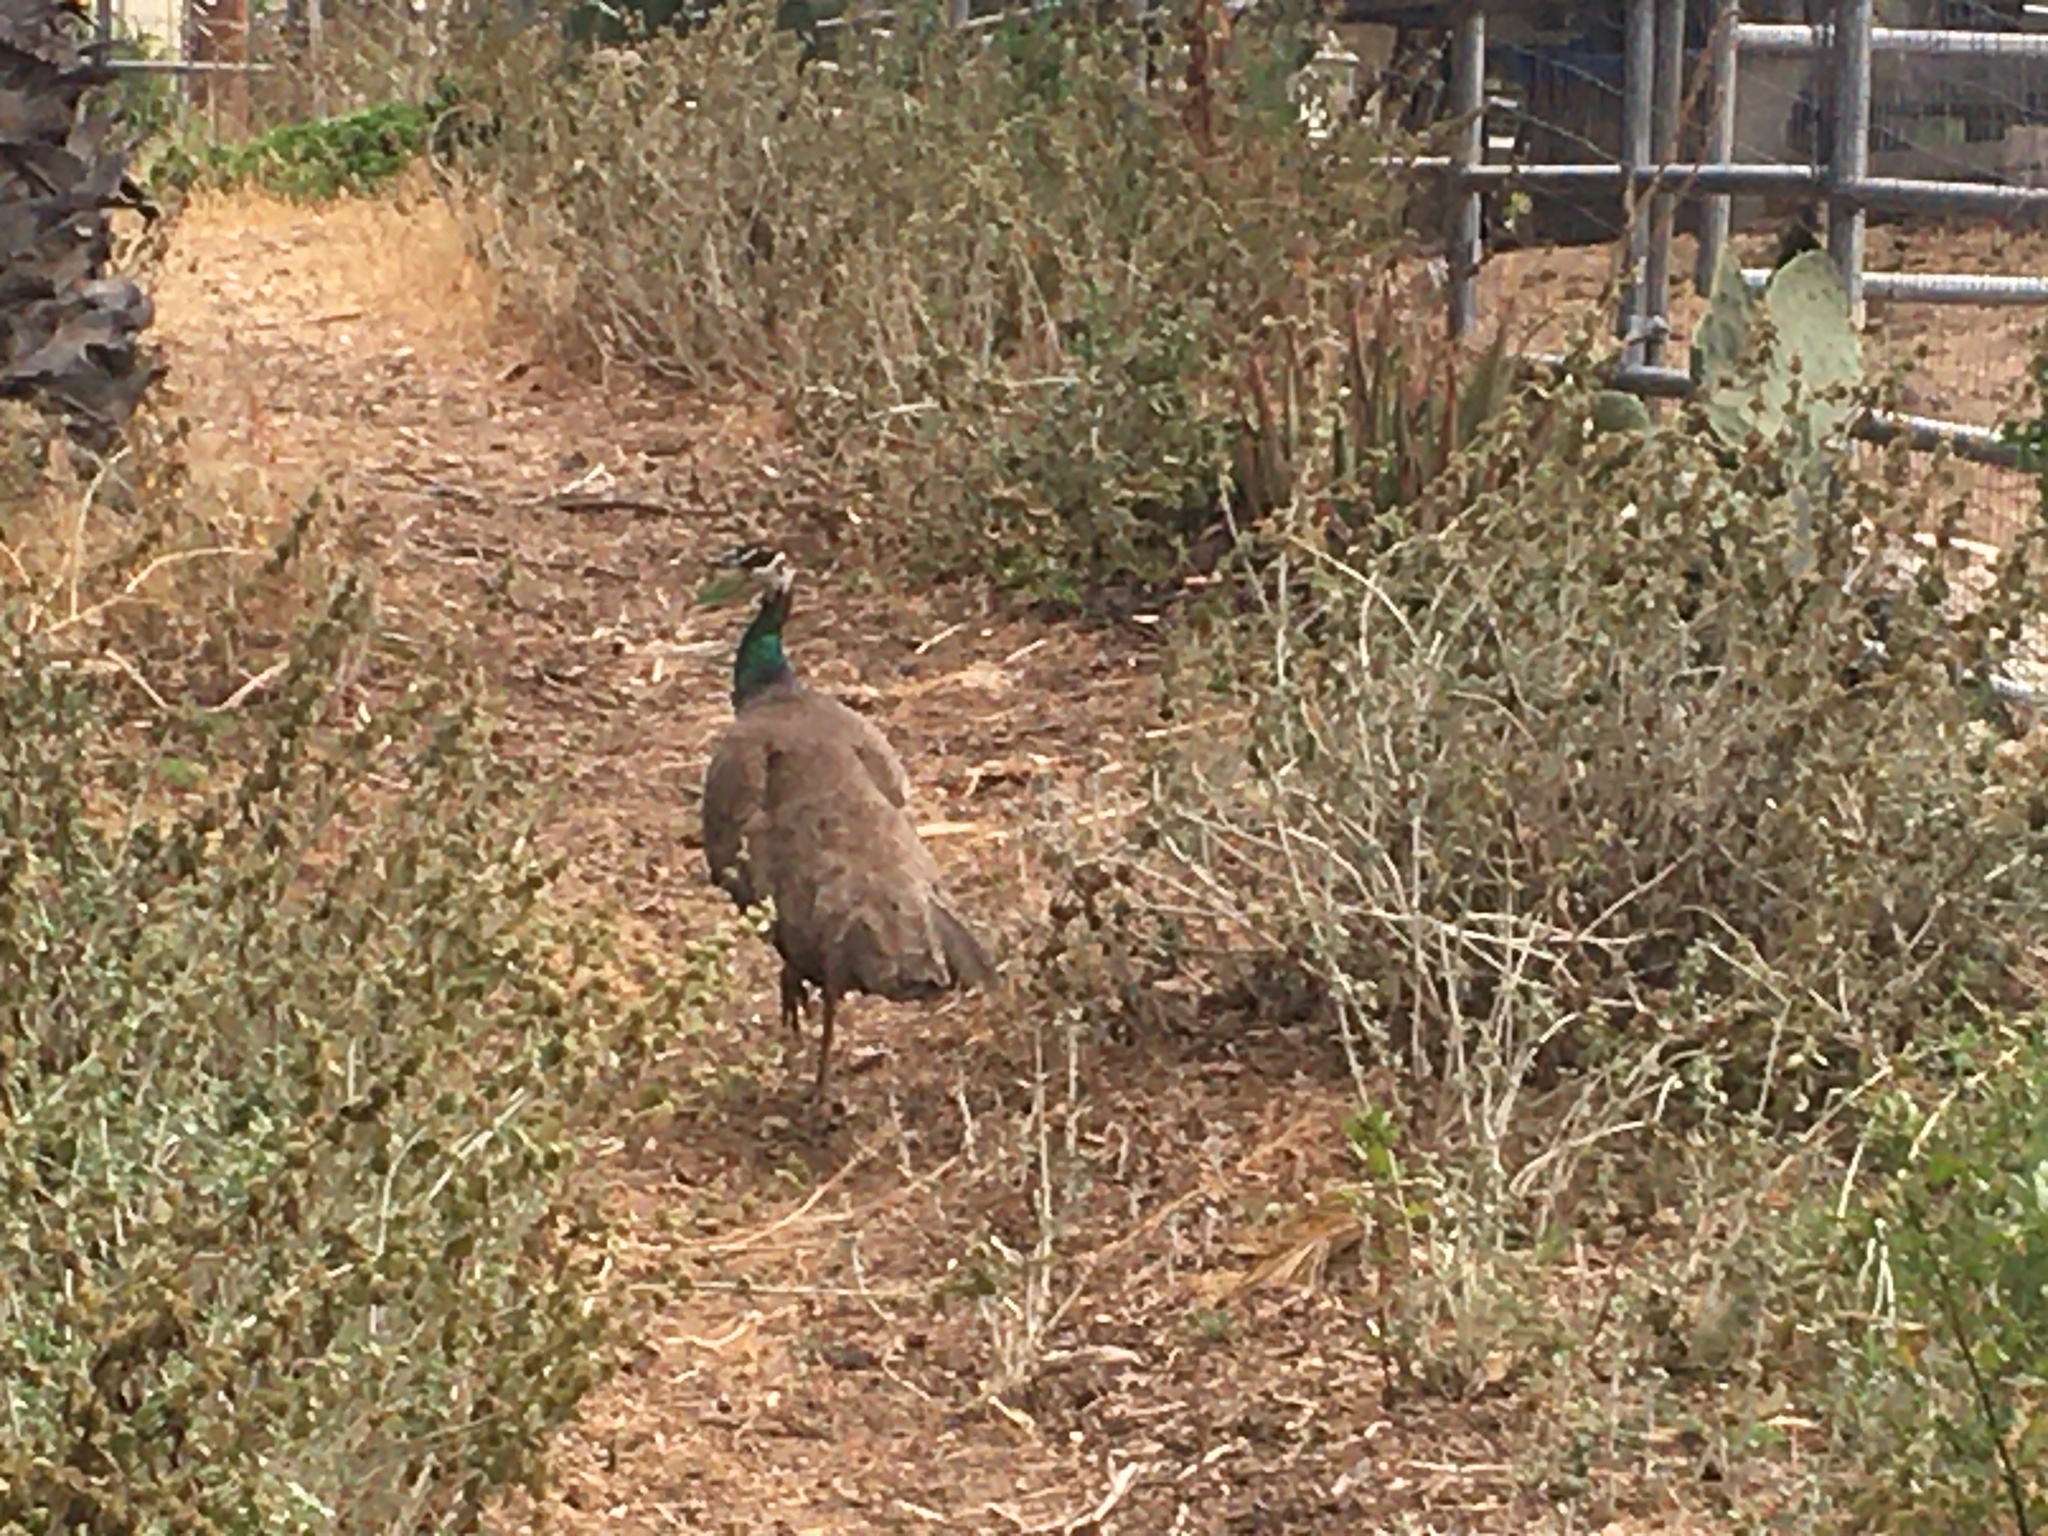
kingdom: Animalia
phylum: Chordata
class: Aves
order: Galliformes
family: Phasianidae
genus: Pavo
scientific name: Pavo cristatus
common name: Indian peafowl
